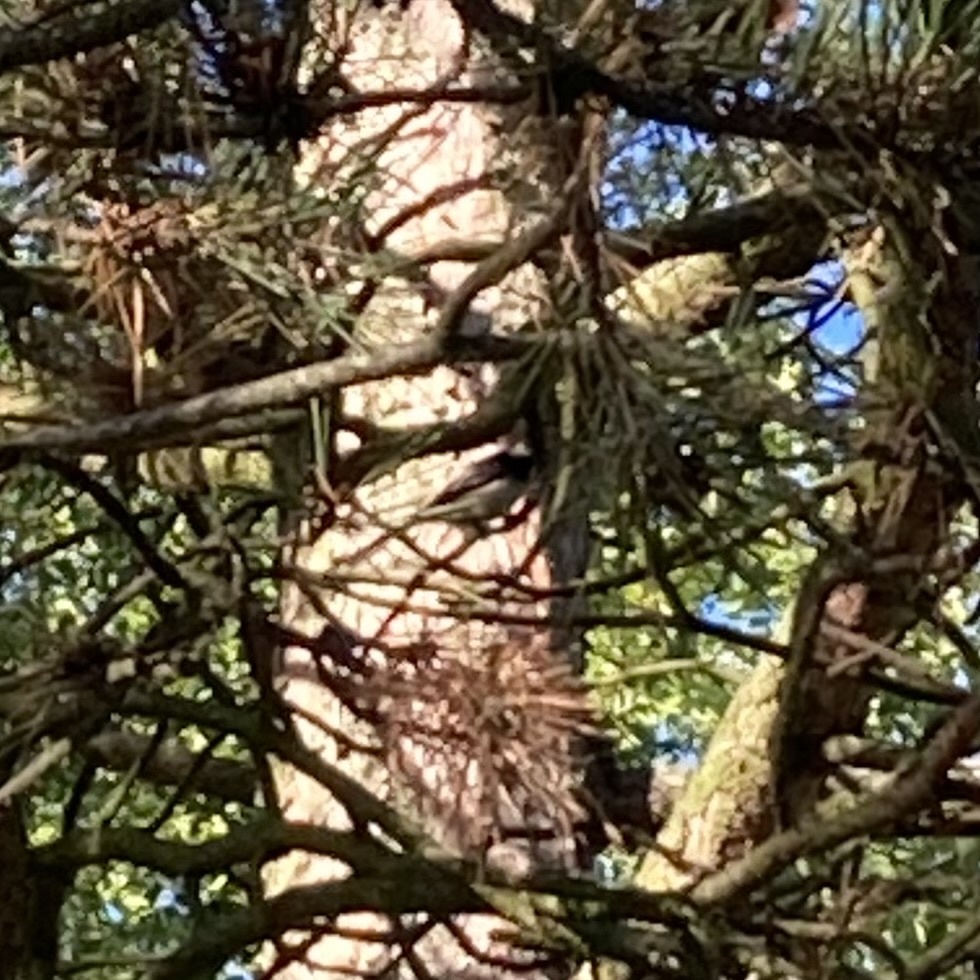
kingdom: Animalia
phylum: Chordata
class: Aves
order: Passeriformes
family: Aegithalidae
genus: Aegithalos
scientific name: Aegithalos caudatus
